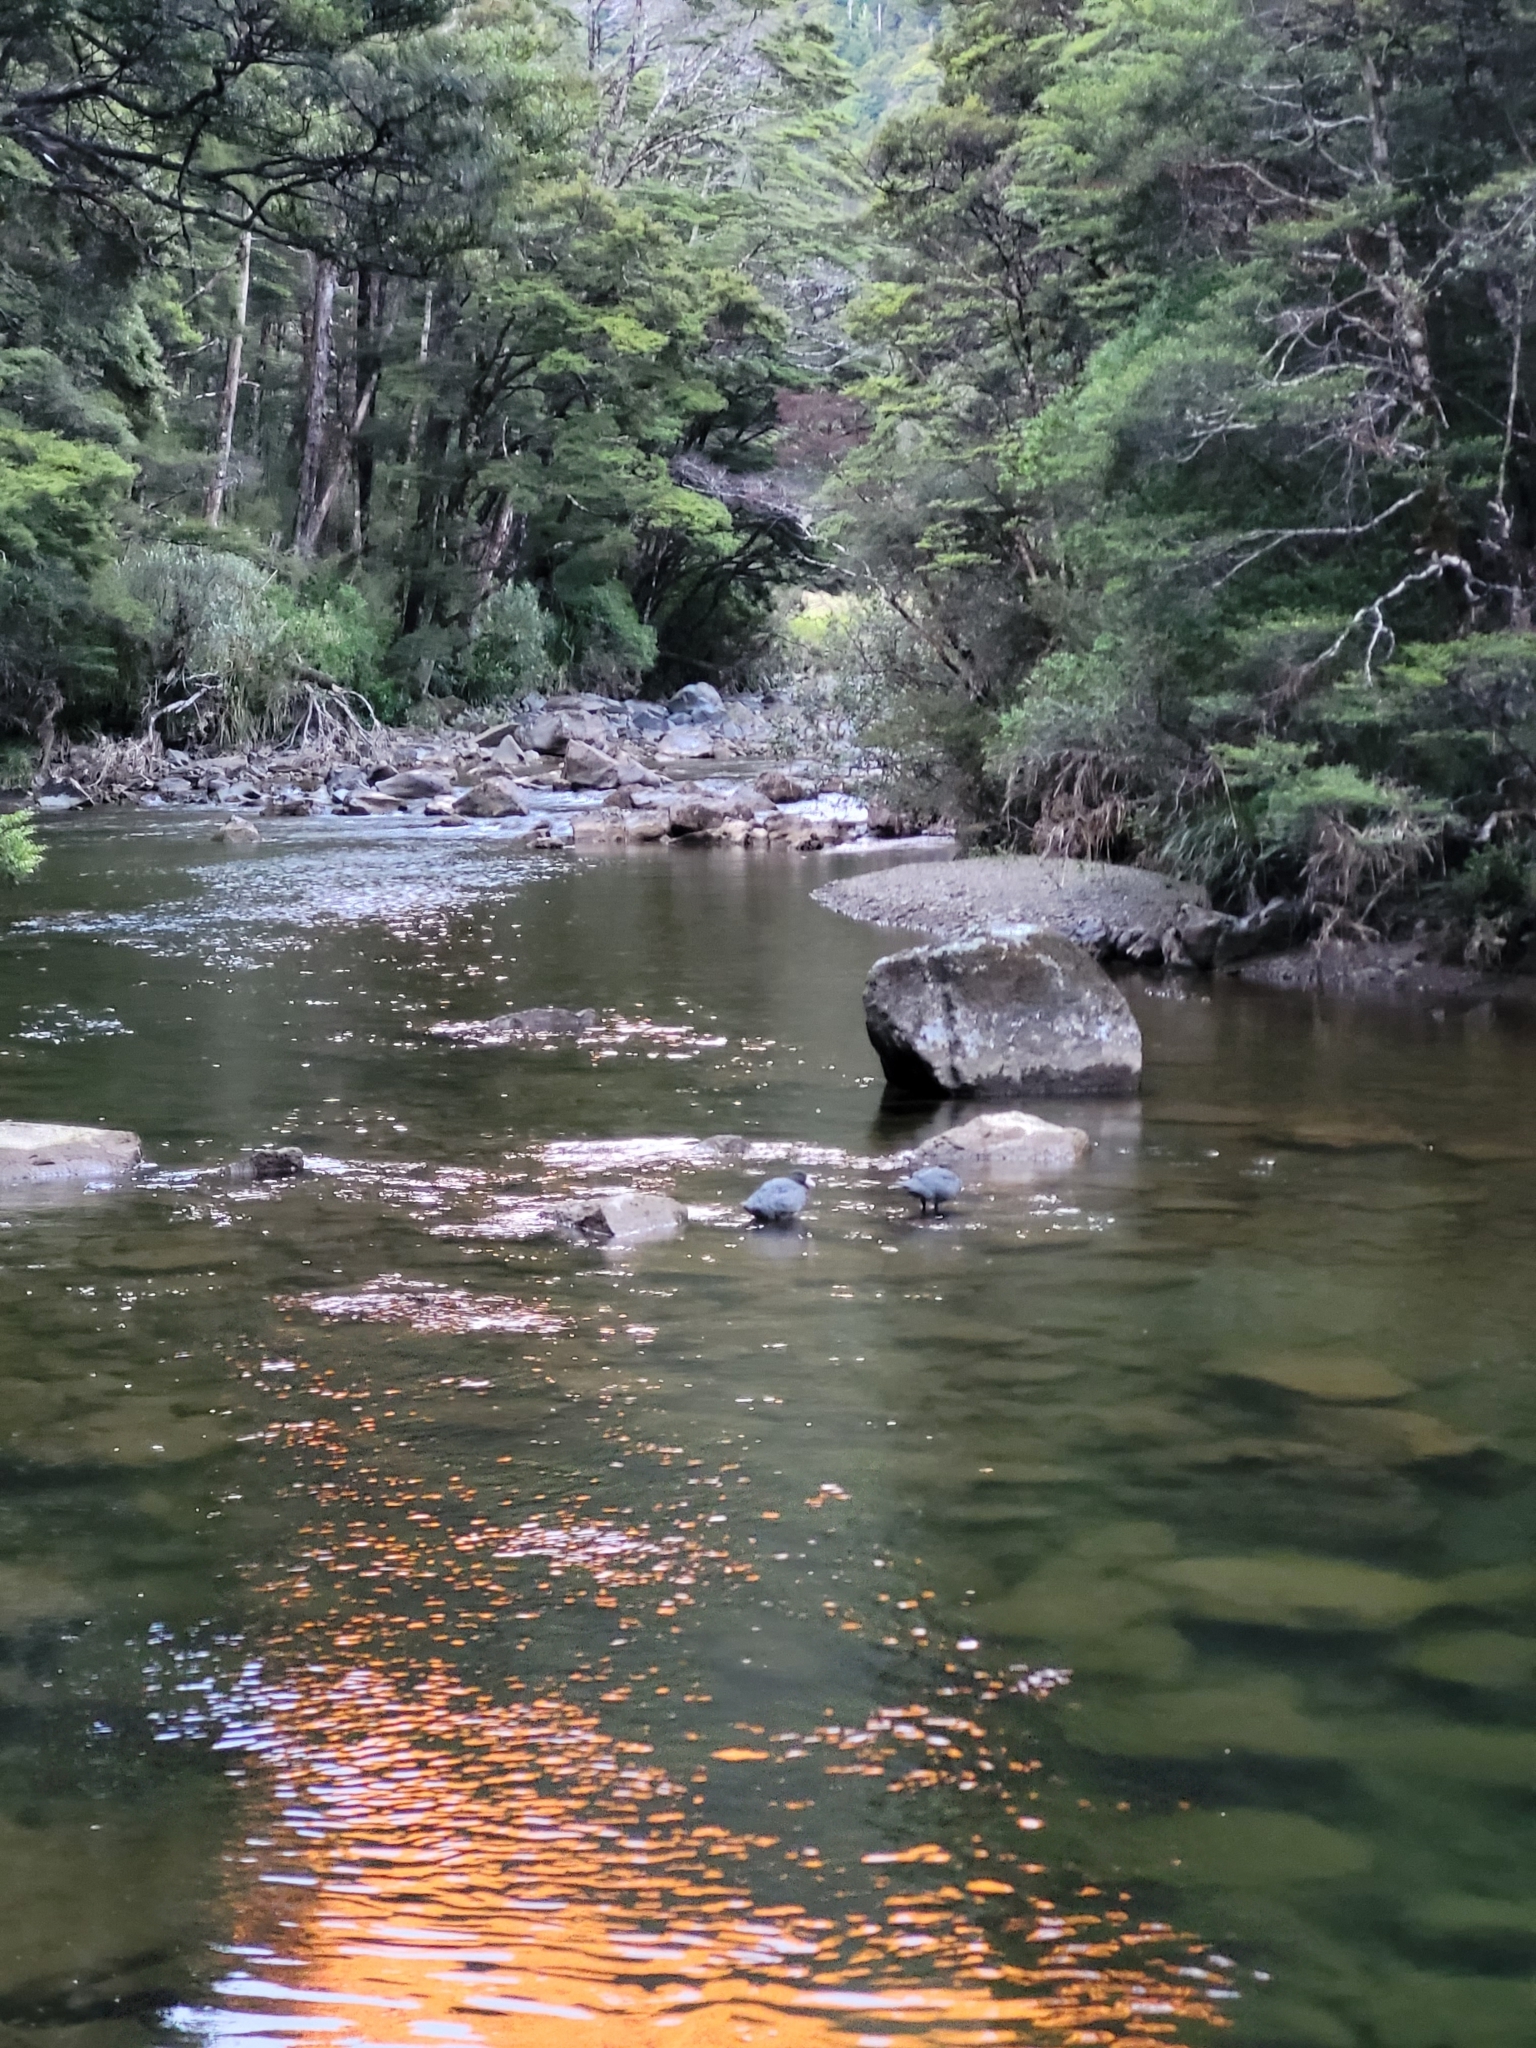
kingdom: Animalia
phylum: Chordata
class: Aves
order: Anseriformes
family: Anatidae
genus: Hymenolaimus
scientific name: Hymenolaimus malacorhynchos
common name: Blue duck
